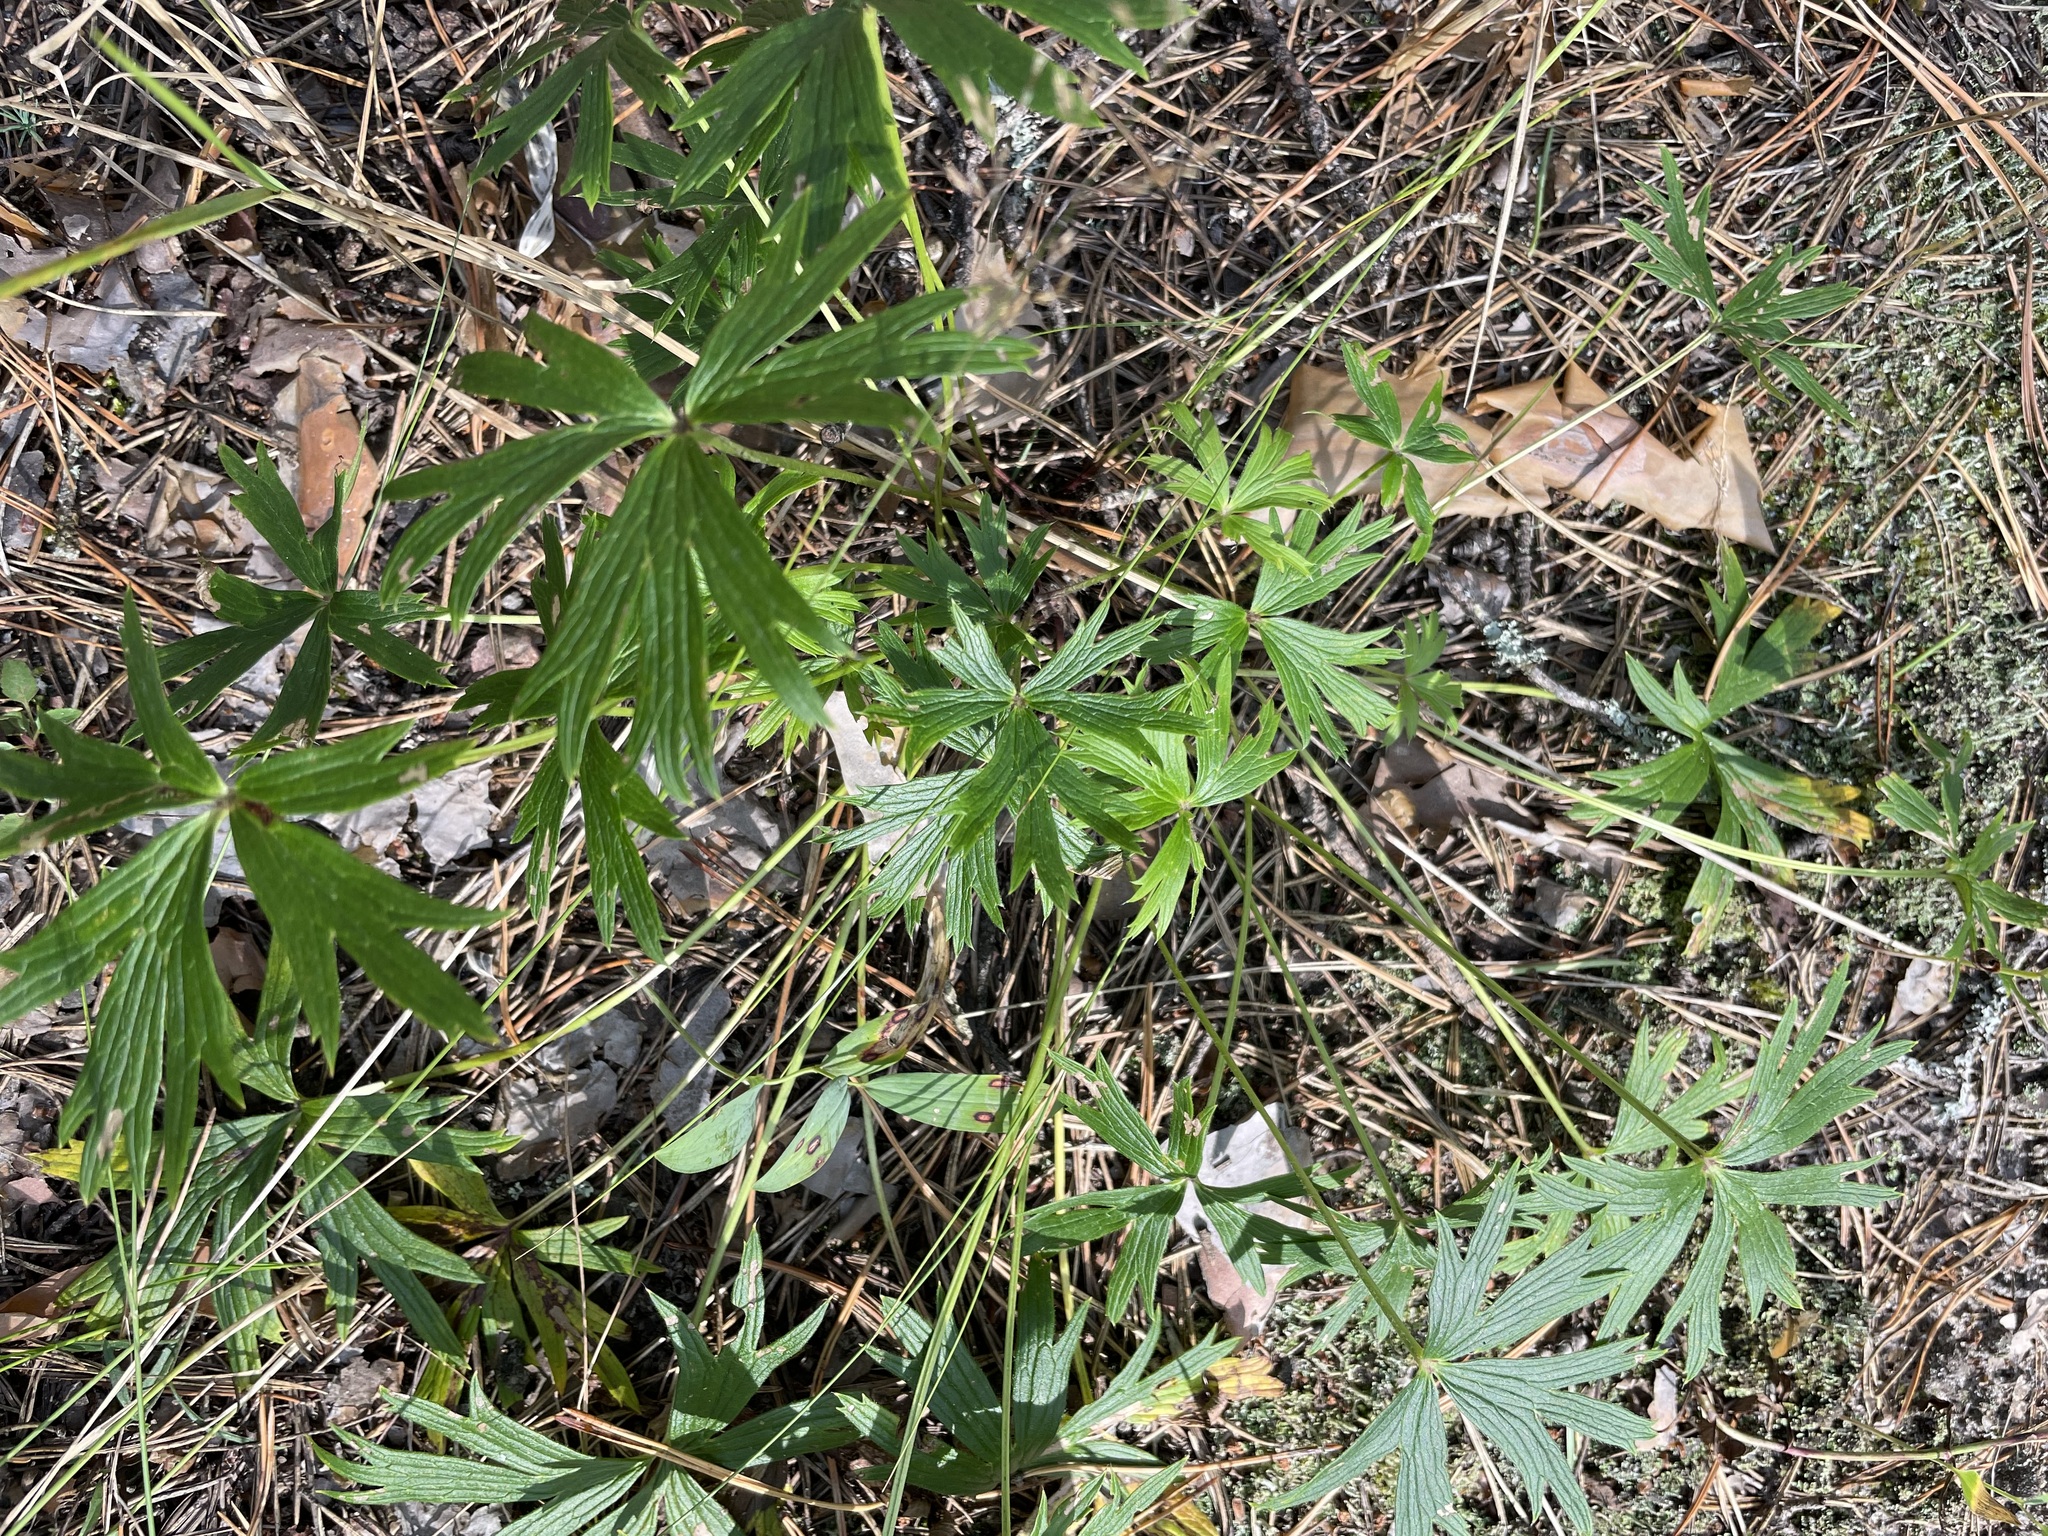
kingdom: Plantae
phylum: Tracheophyta
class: Magnoliopsida
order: Ranunculales
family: Ranunculaceae
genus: Pulsatilla
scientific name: Pulsatilla patens
